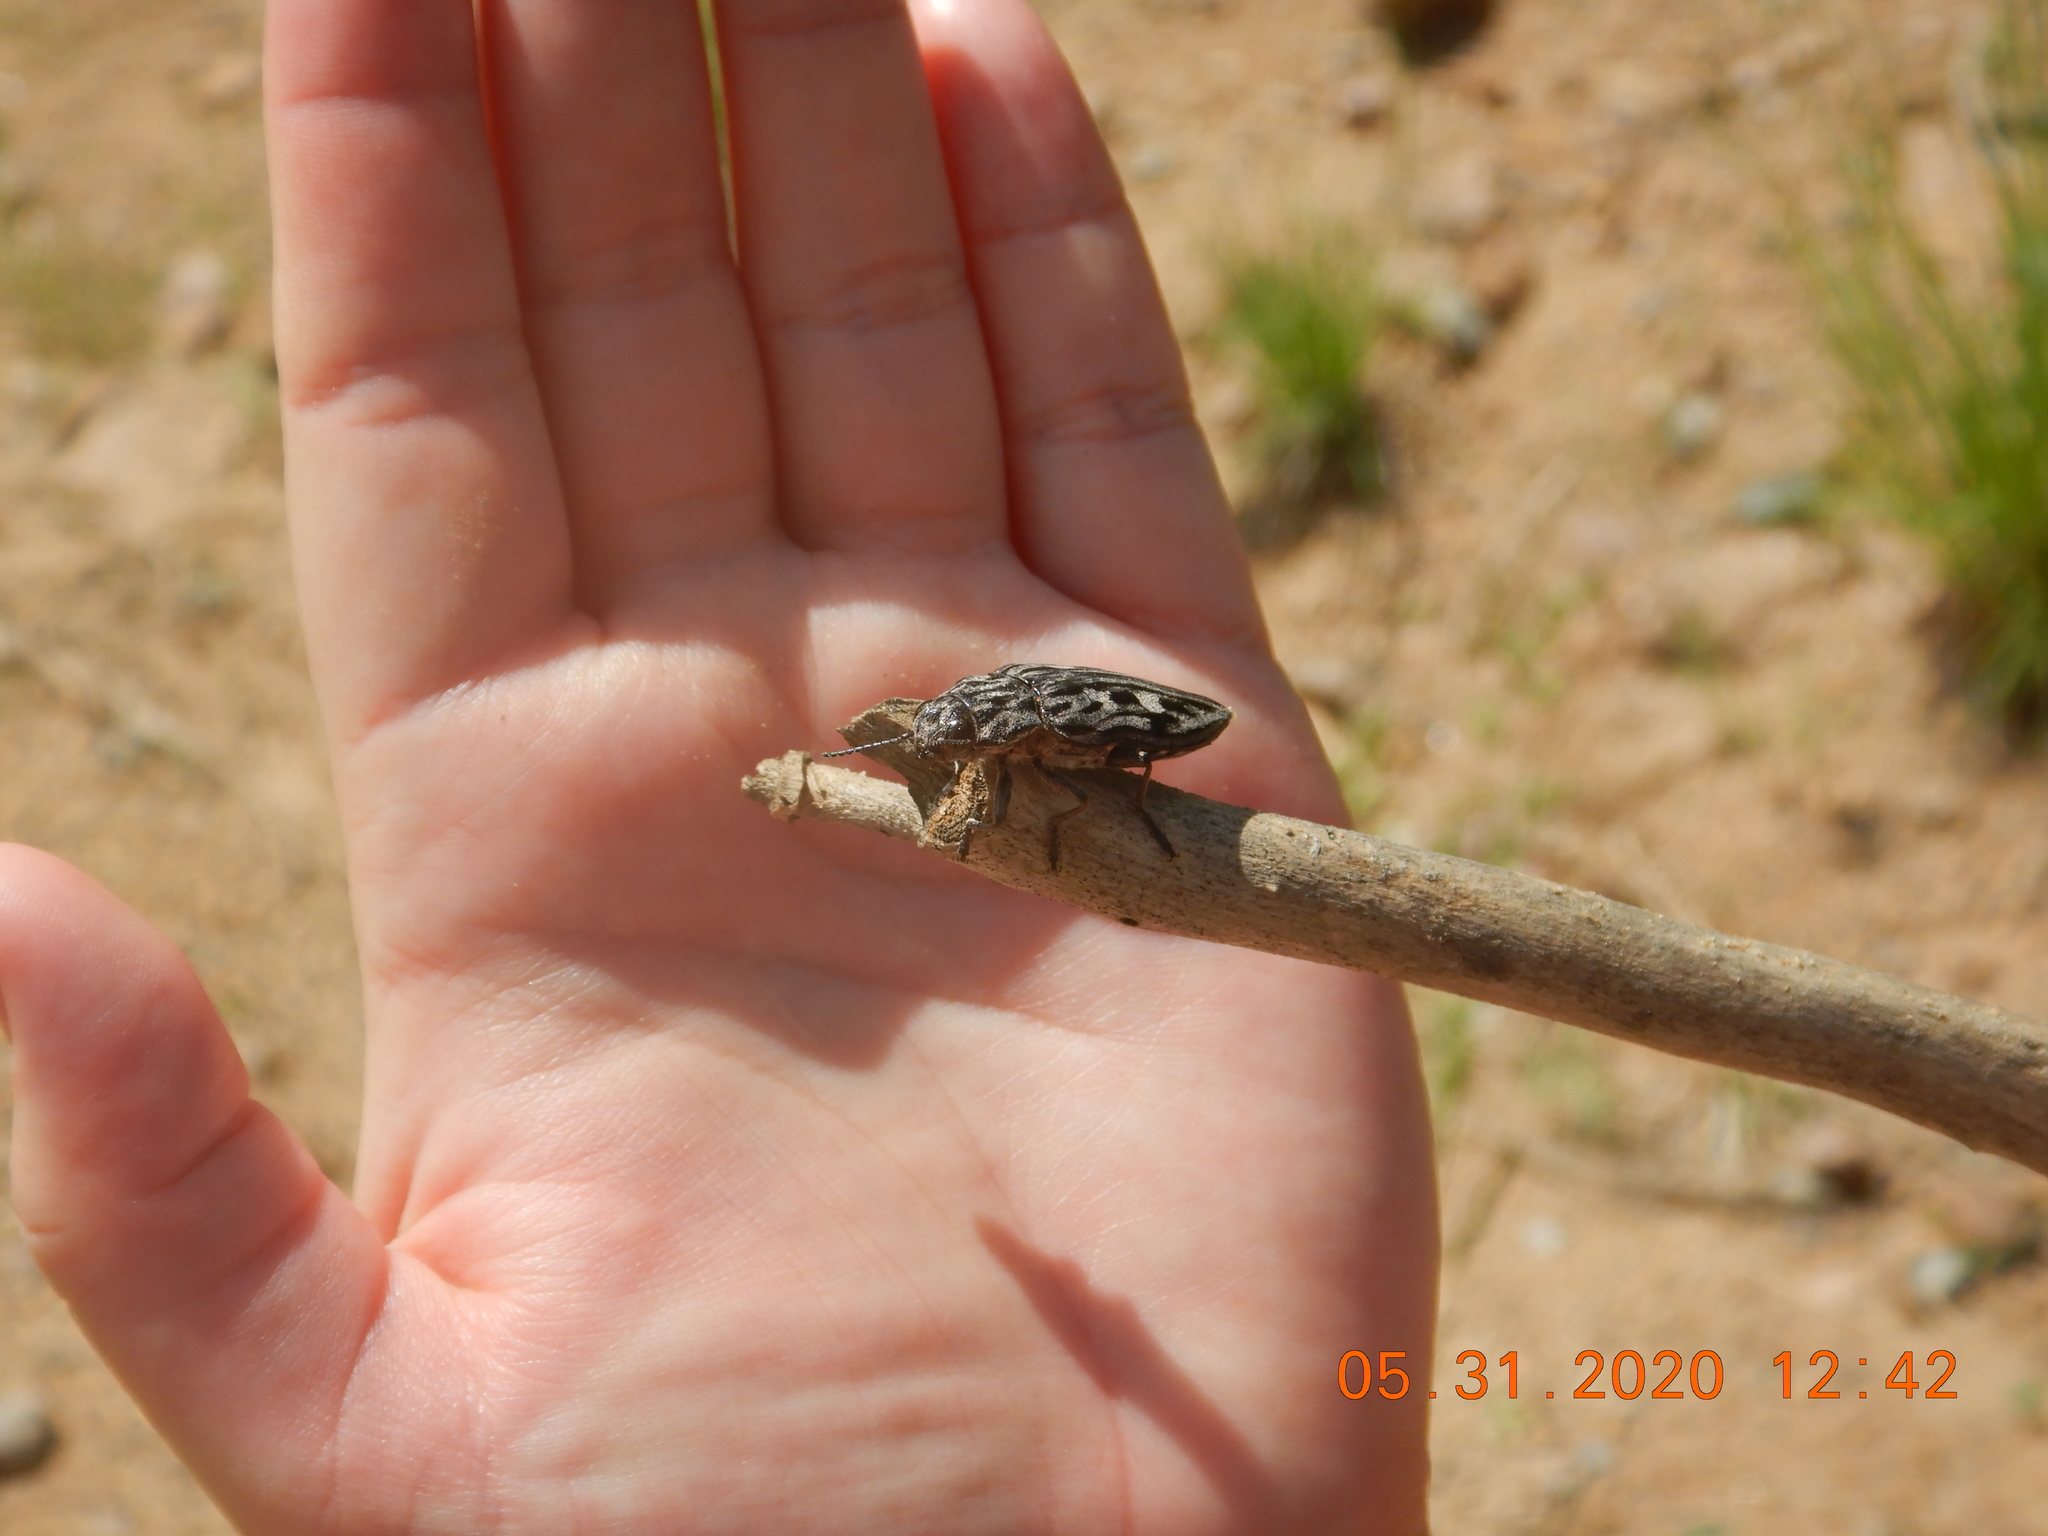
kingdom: Animalia
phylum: Arthropoda
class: Insecta
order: Coleoptera
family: Buprestidae
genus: Chalcophora
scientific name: Chalcophora angulicollis
